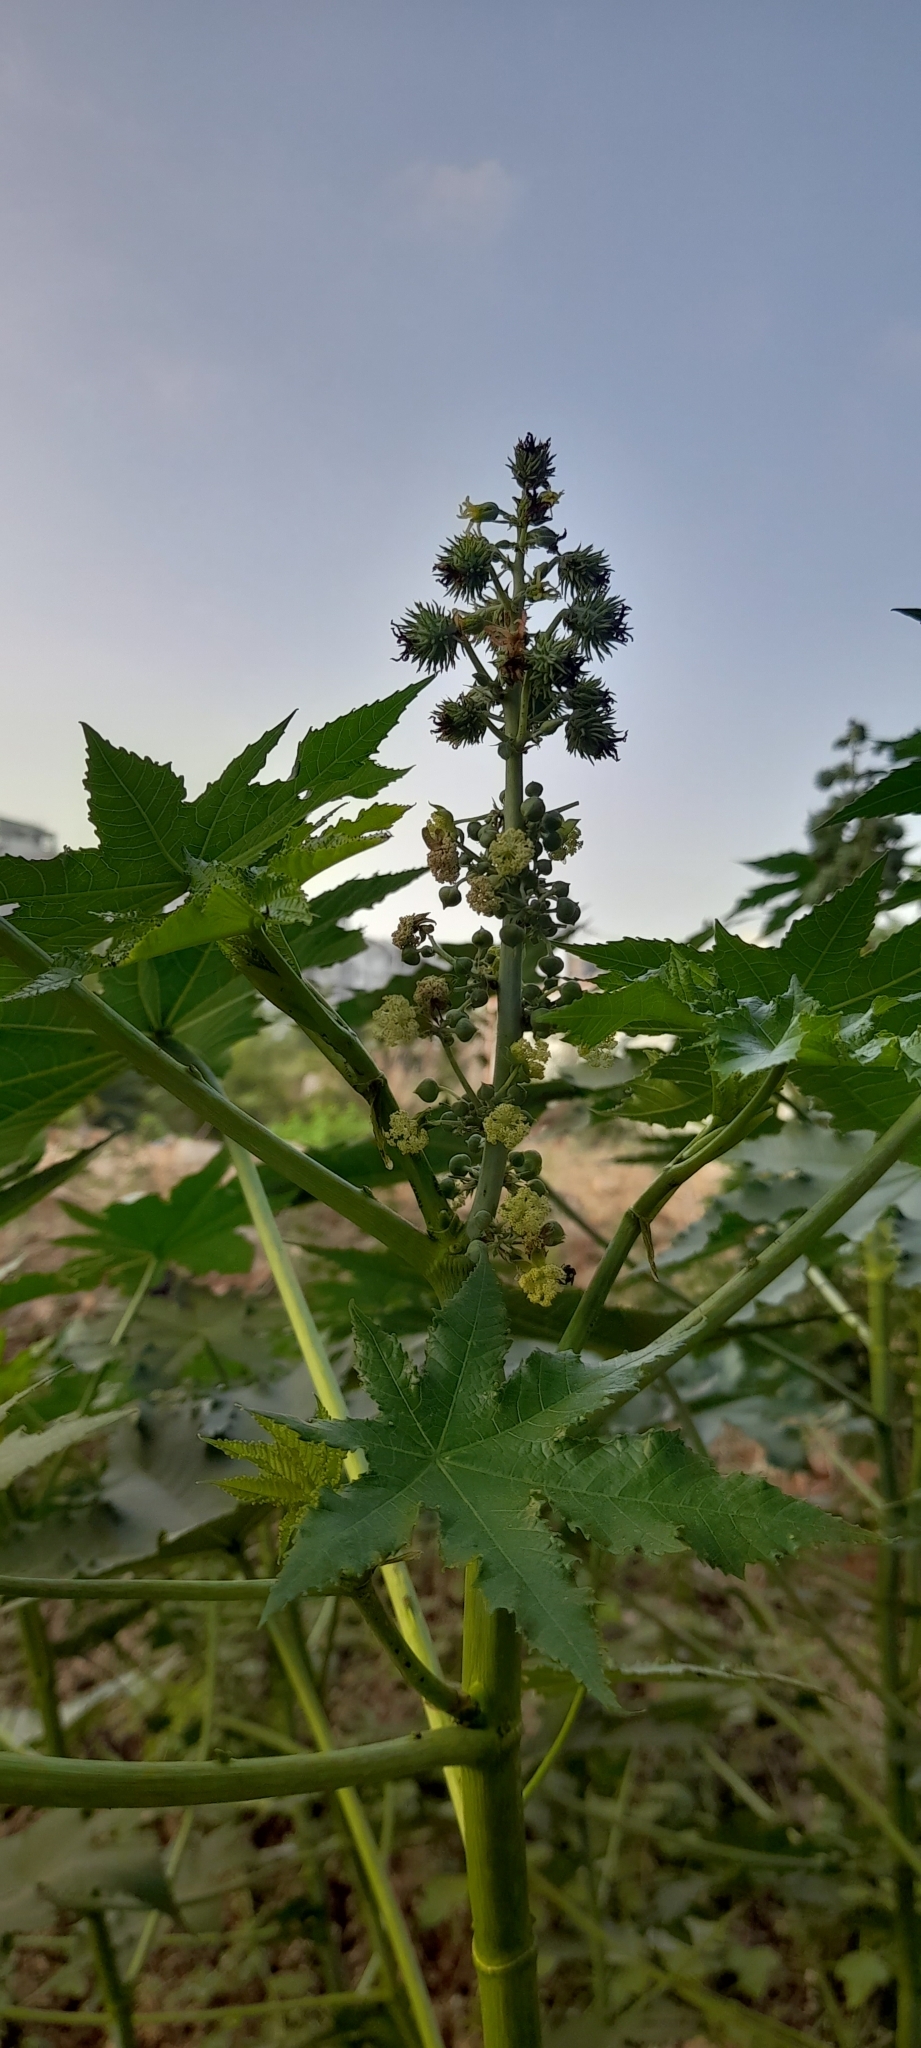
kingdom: Plantae
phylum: Tracheophyta
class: Magnoliopsida
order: Malpighiales
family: Euphorbiaceae
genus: Ricinus
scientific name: Ricinus communis
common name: Castor-oil-plant
